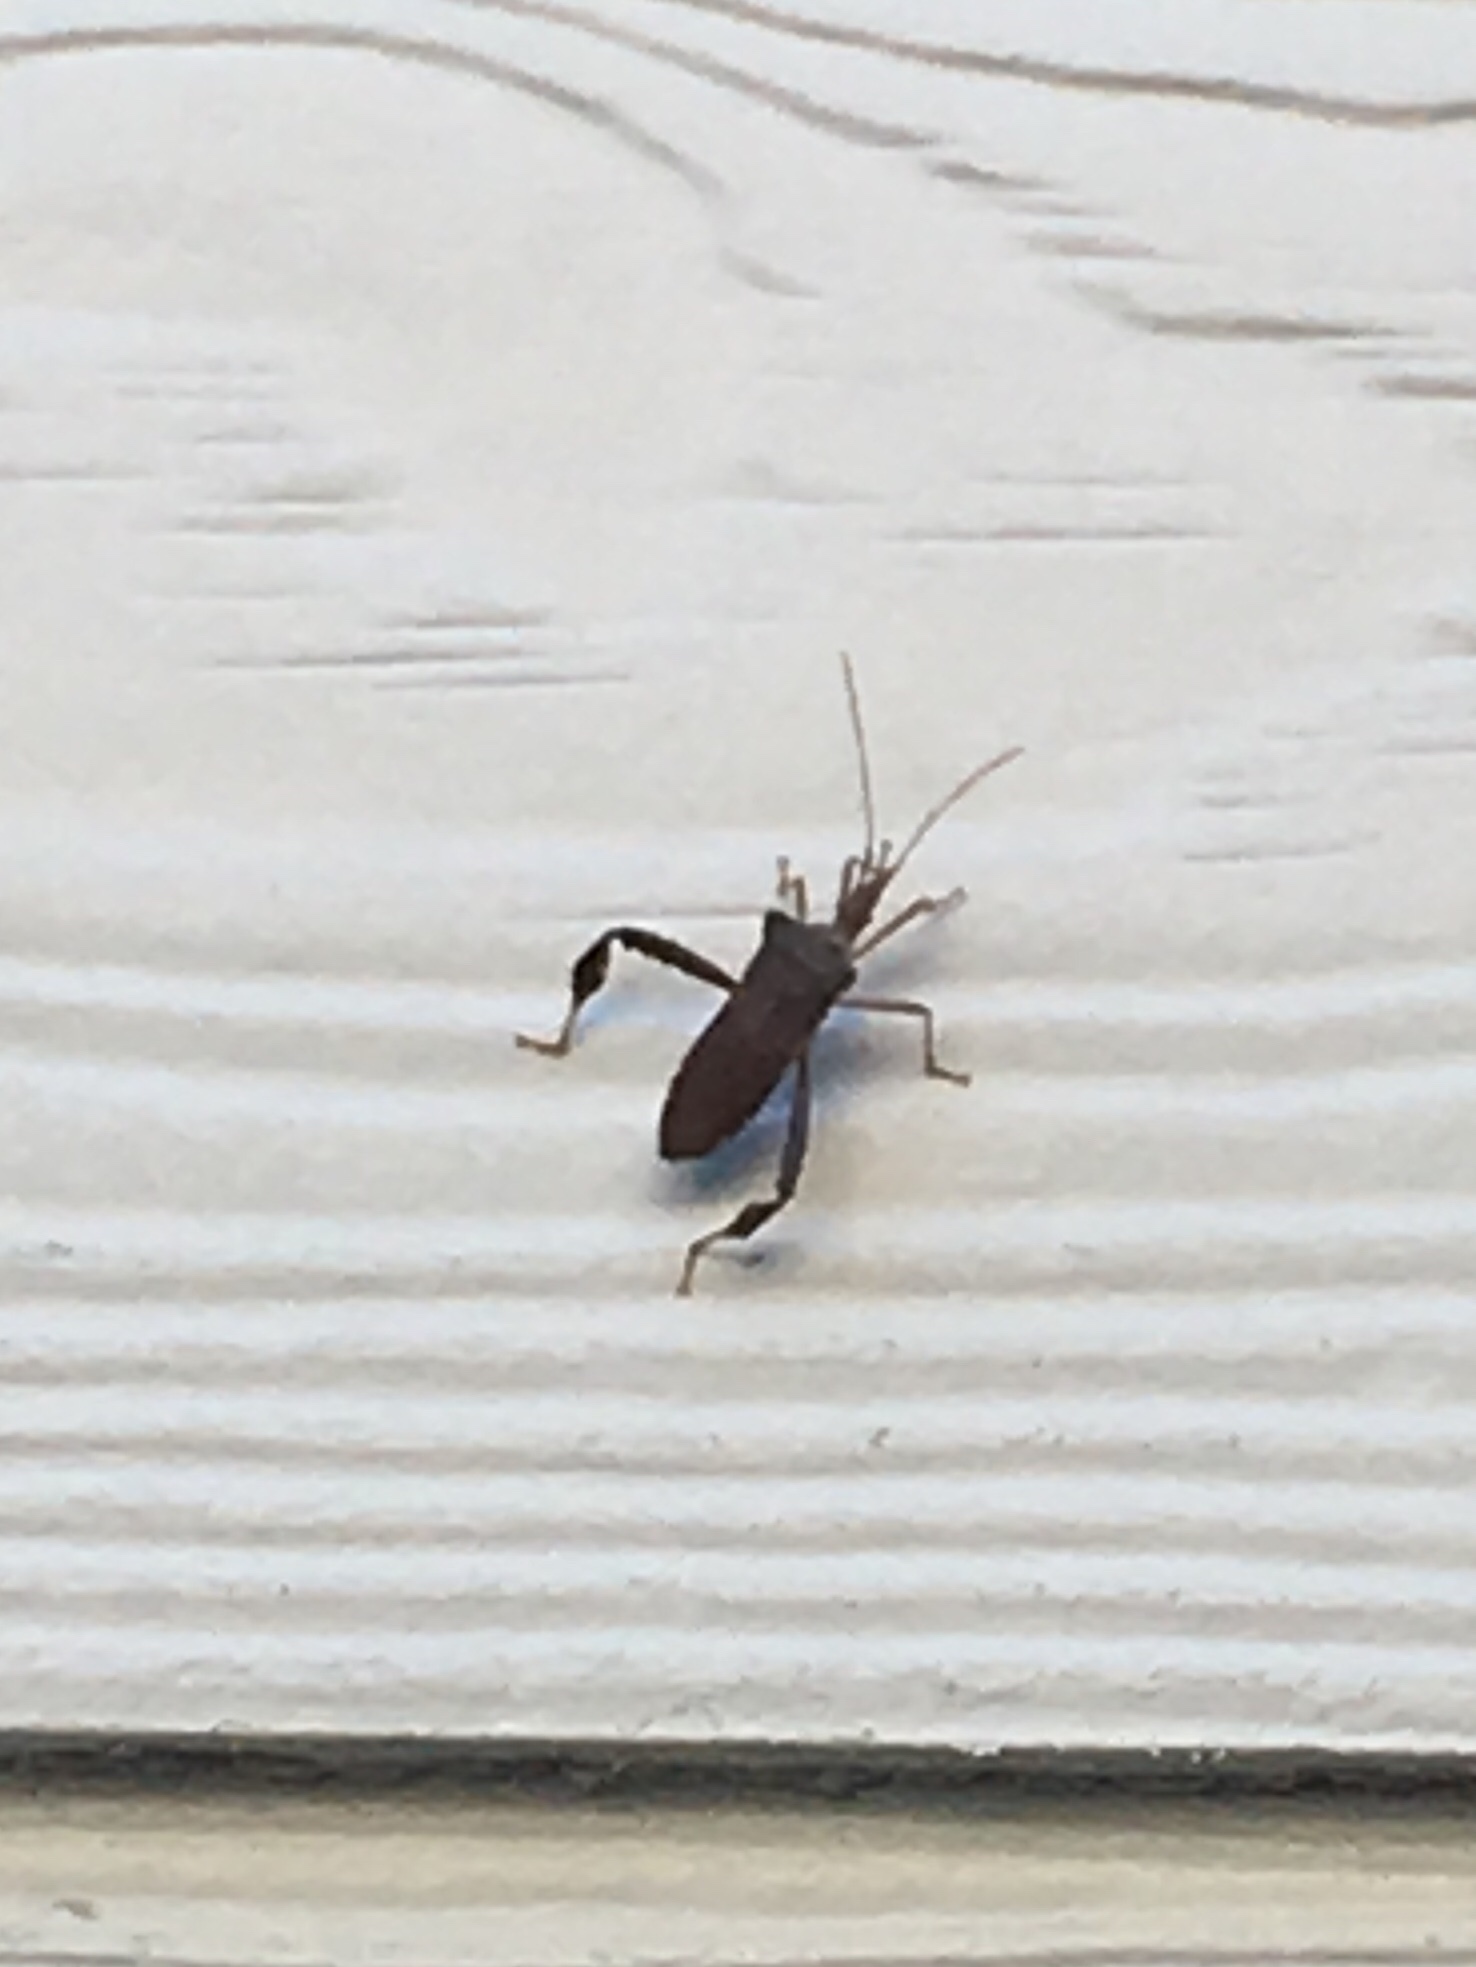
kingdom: Animalia
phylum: Arthropoda
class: Insecta
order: Hemiptera
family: Coreidae
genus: Leptoglossus
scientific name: Leptoglossus fulvicornis
